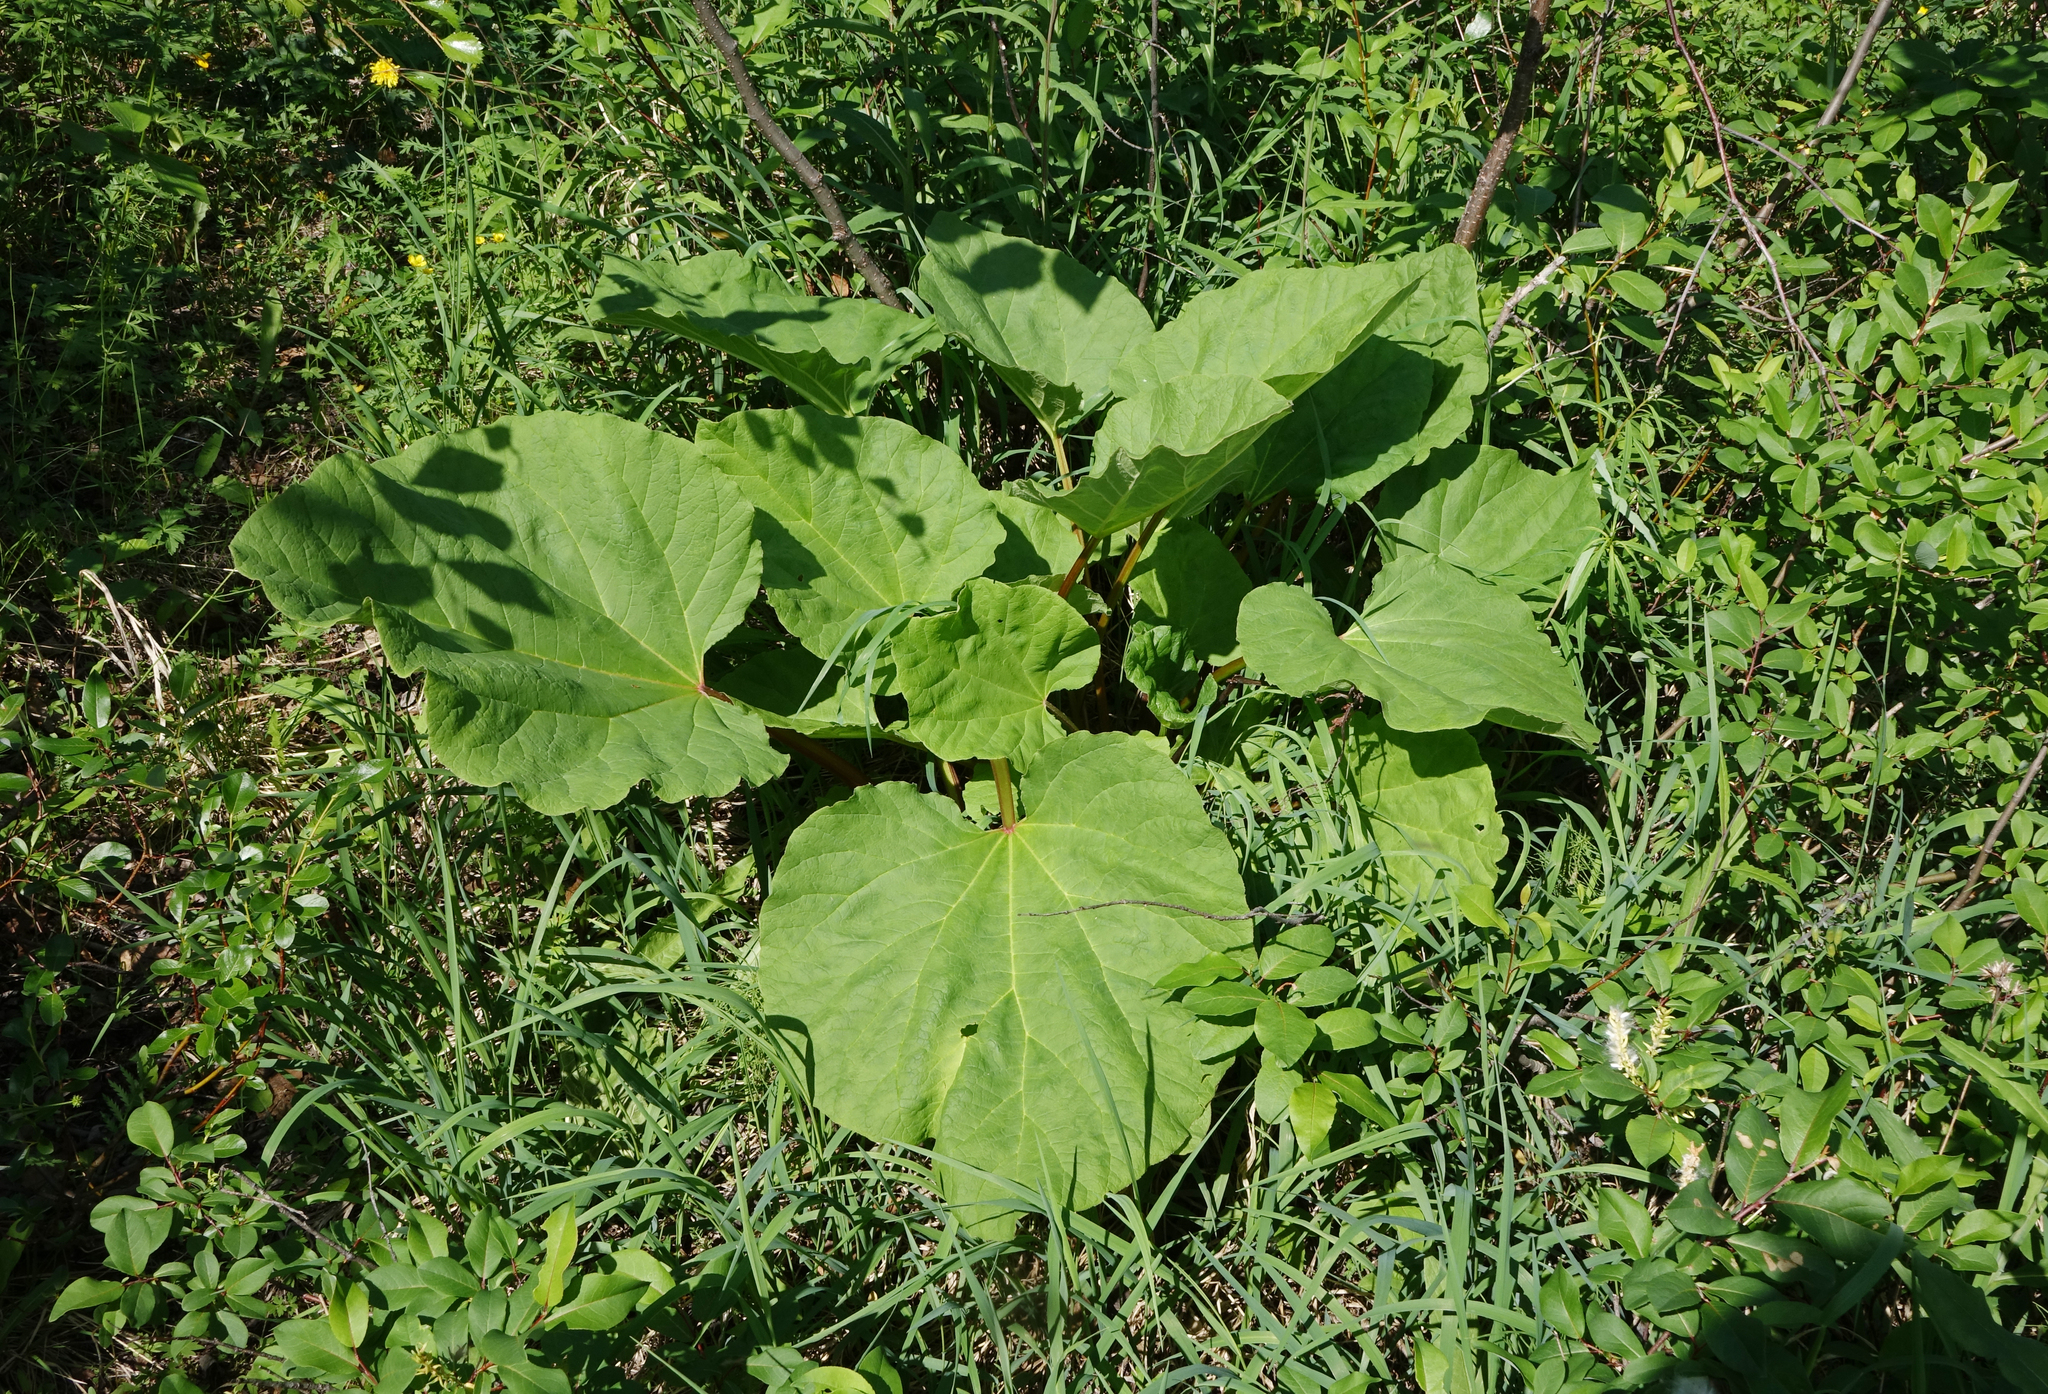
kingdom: Plantae
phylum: Tracheophyta
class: Magnoliopsida
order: Caryophyllales
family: Polygonaceae
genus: Rheum
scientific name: Rheum compactum
